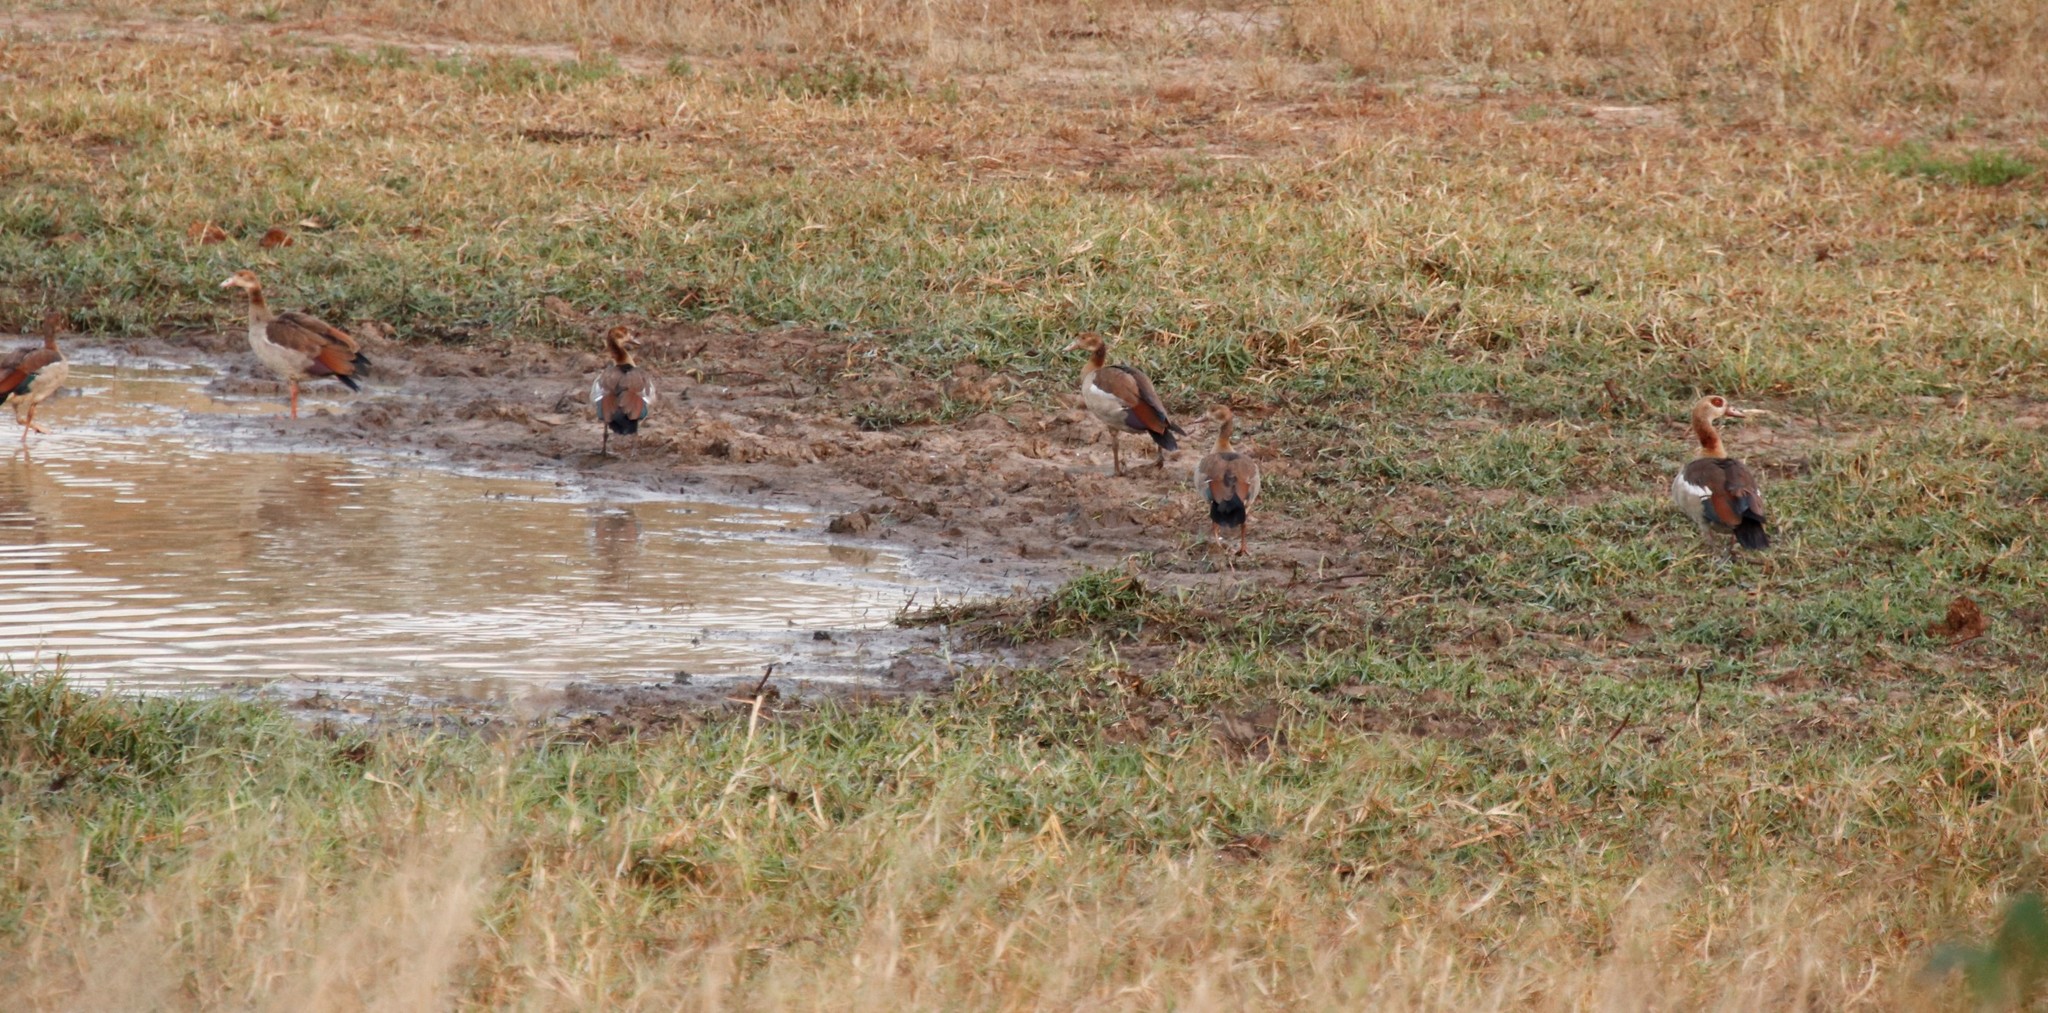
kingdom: Animalia
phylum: Chordata
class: Aves
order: Anseriformes
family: Anatidae
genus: Alopochen
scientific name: Alopochen aegyptiaca
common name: Egyptian goose
